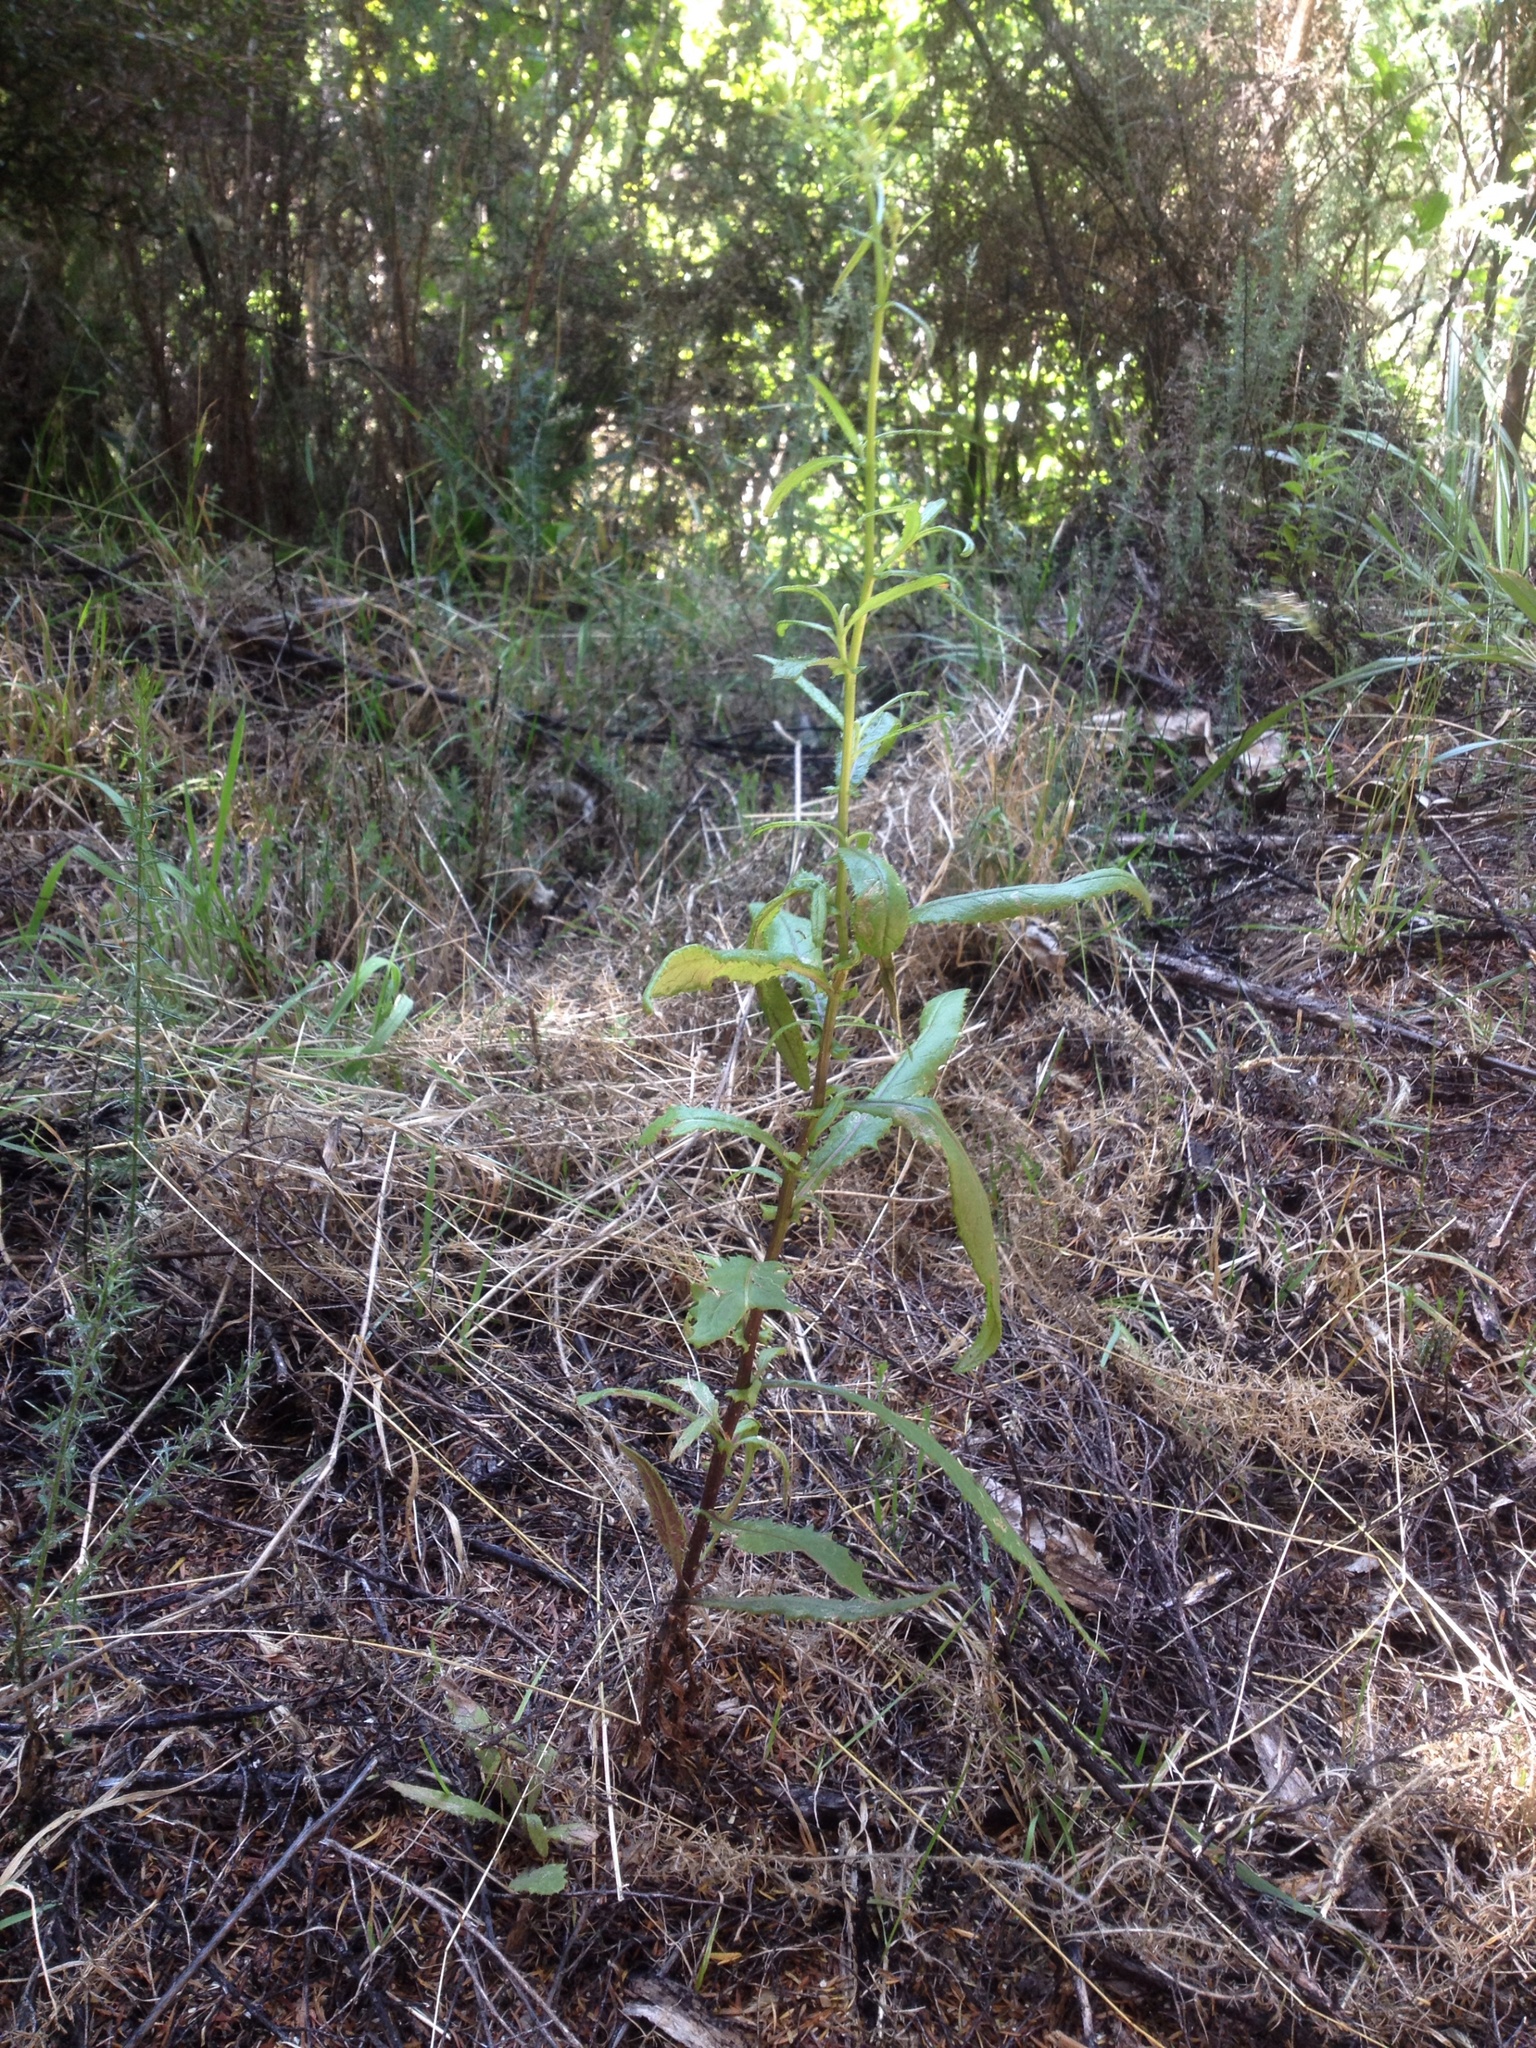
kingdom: Plantae
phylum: Tracheophyta
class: Magnoliopsida
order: Asterales
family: Asteraceae
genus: Senecio
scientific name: Senecio minimus
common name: Toothed fireweed
